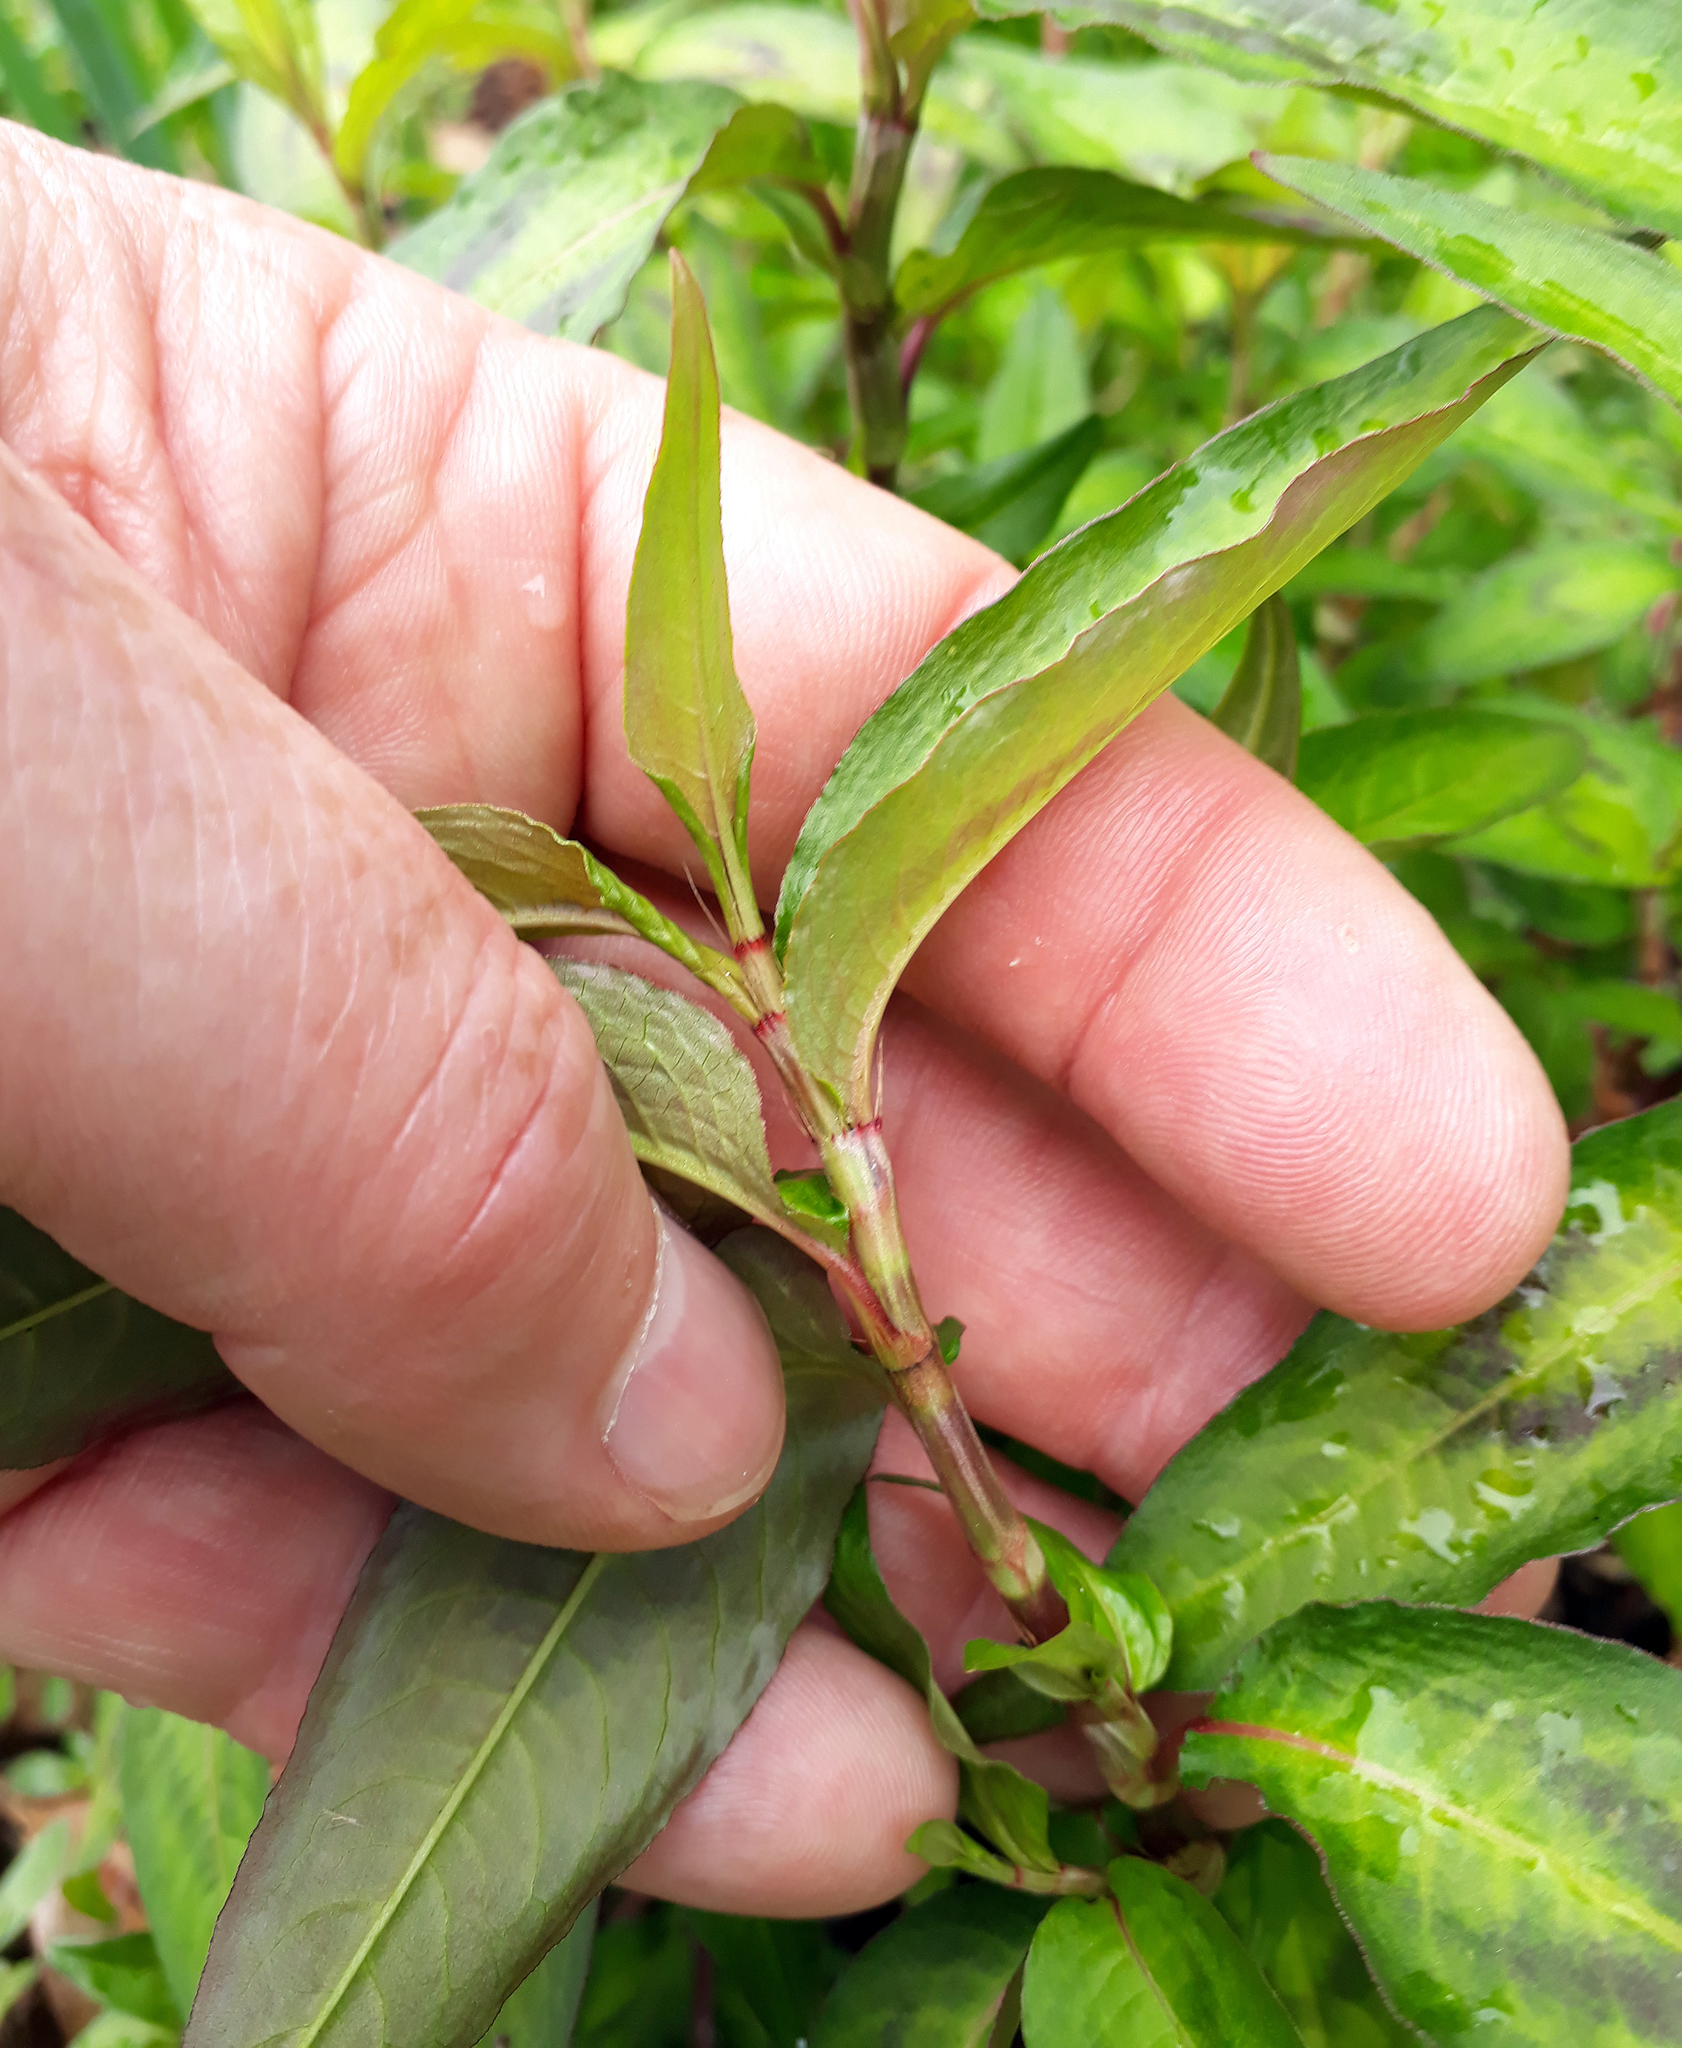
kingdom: Plantae
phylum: Tracheophyta
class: Magnoliopsida
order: Caryophyllales
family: Polygonaceae
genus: Persicaria
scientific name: Persicaria odorata
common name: Vietnamese-coriander
